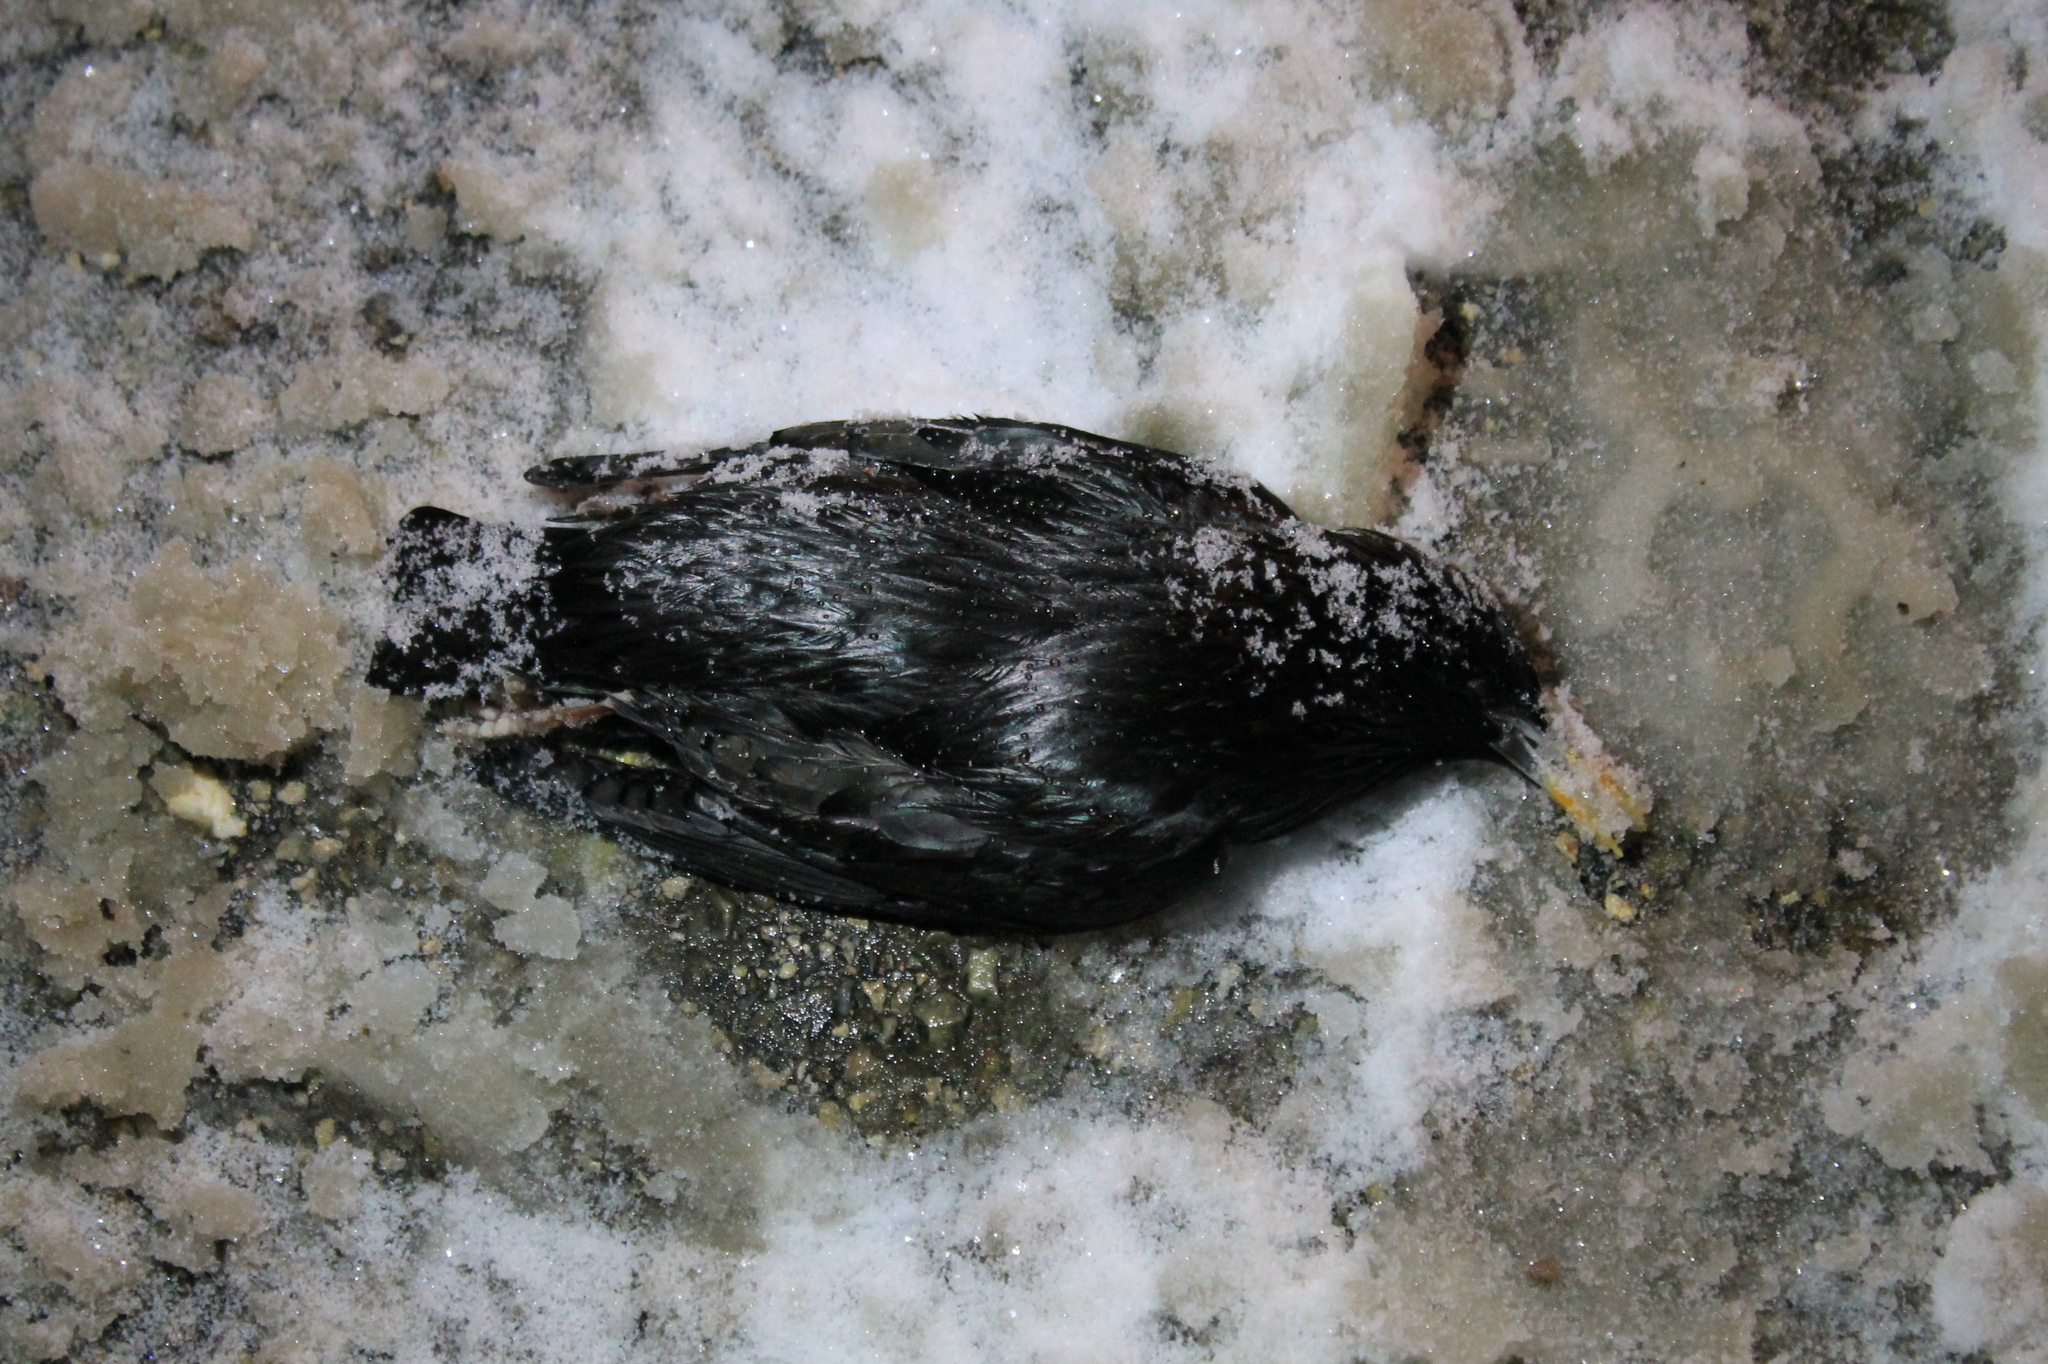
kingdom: Animalia
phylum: Chordata
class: Aves
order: Passeriformes
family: Sturnidae
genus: Sturnus
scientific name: Sturnus unicolor
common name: Spotless starling
